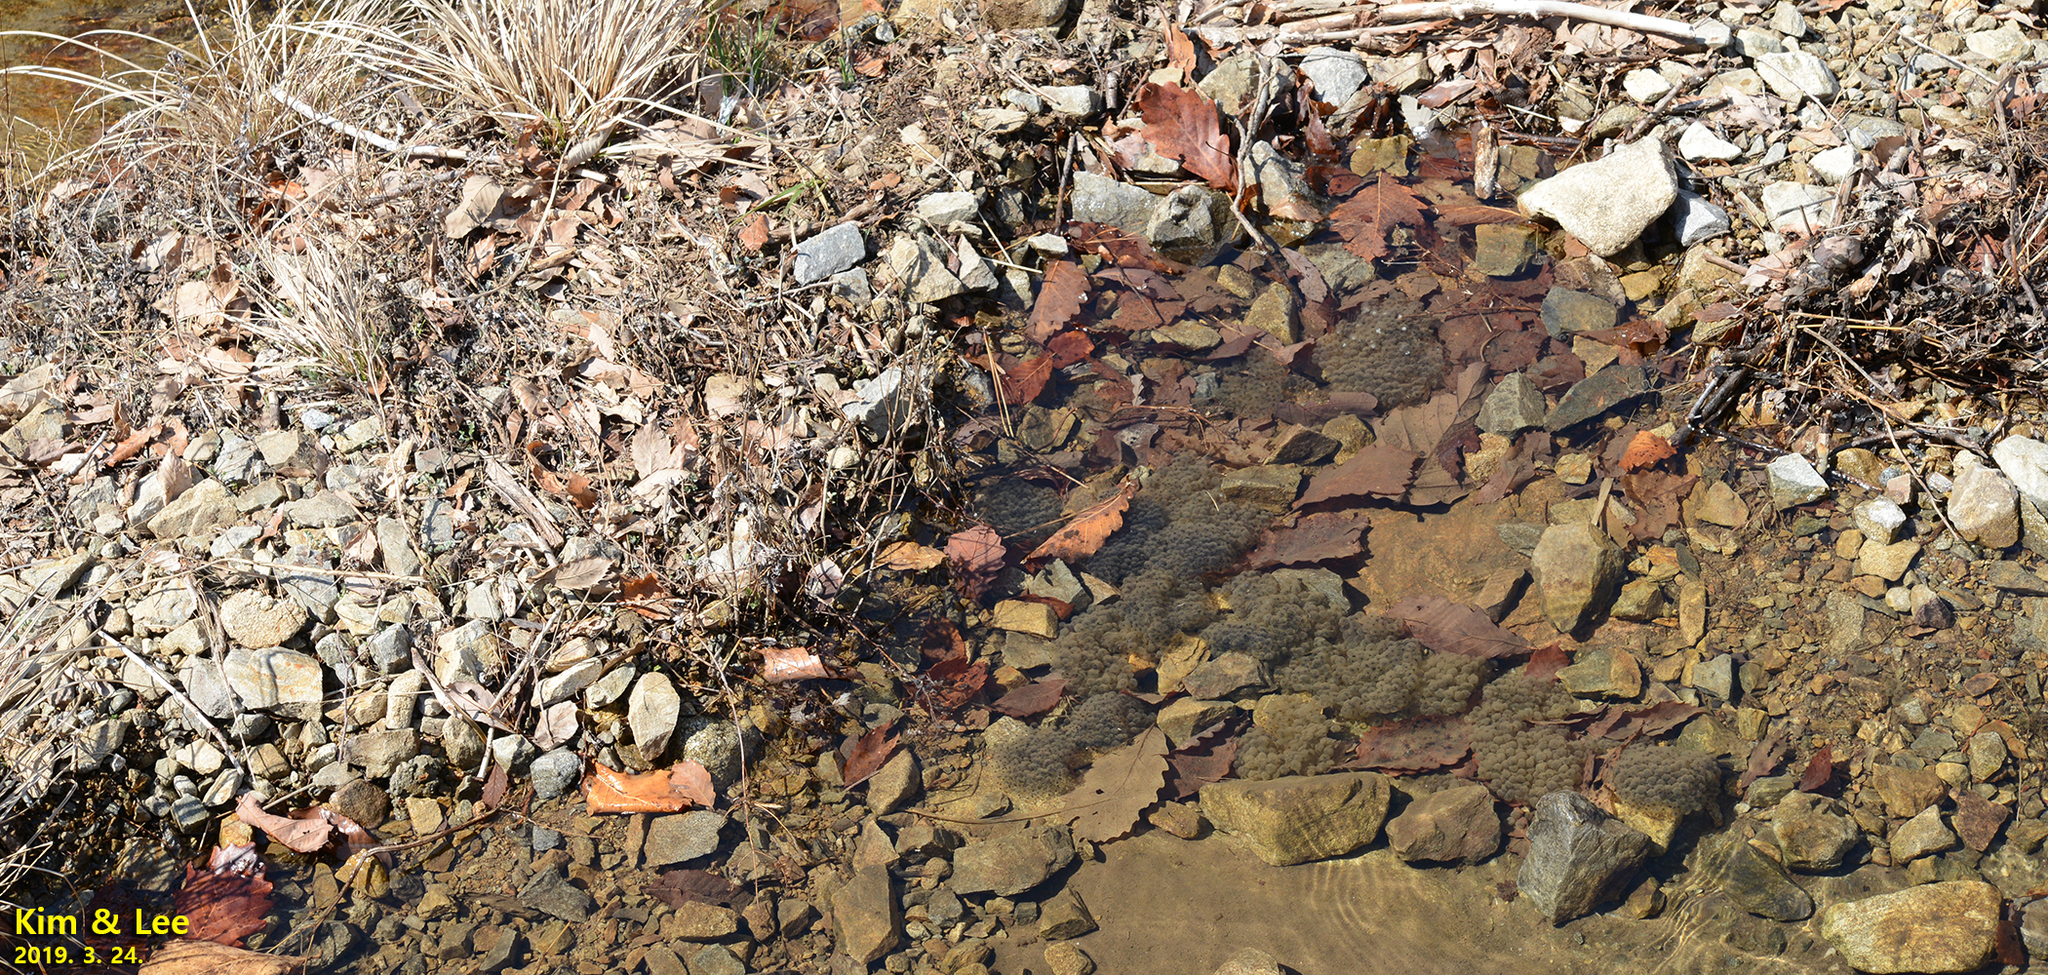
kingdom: Animalia
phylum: Chordata
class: Amphibia
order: Anura
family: Ranidae
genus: Rana
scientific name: Rana huanrenensis
